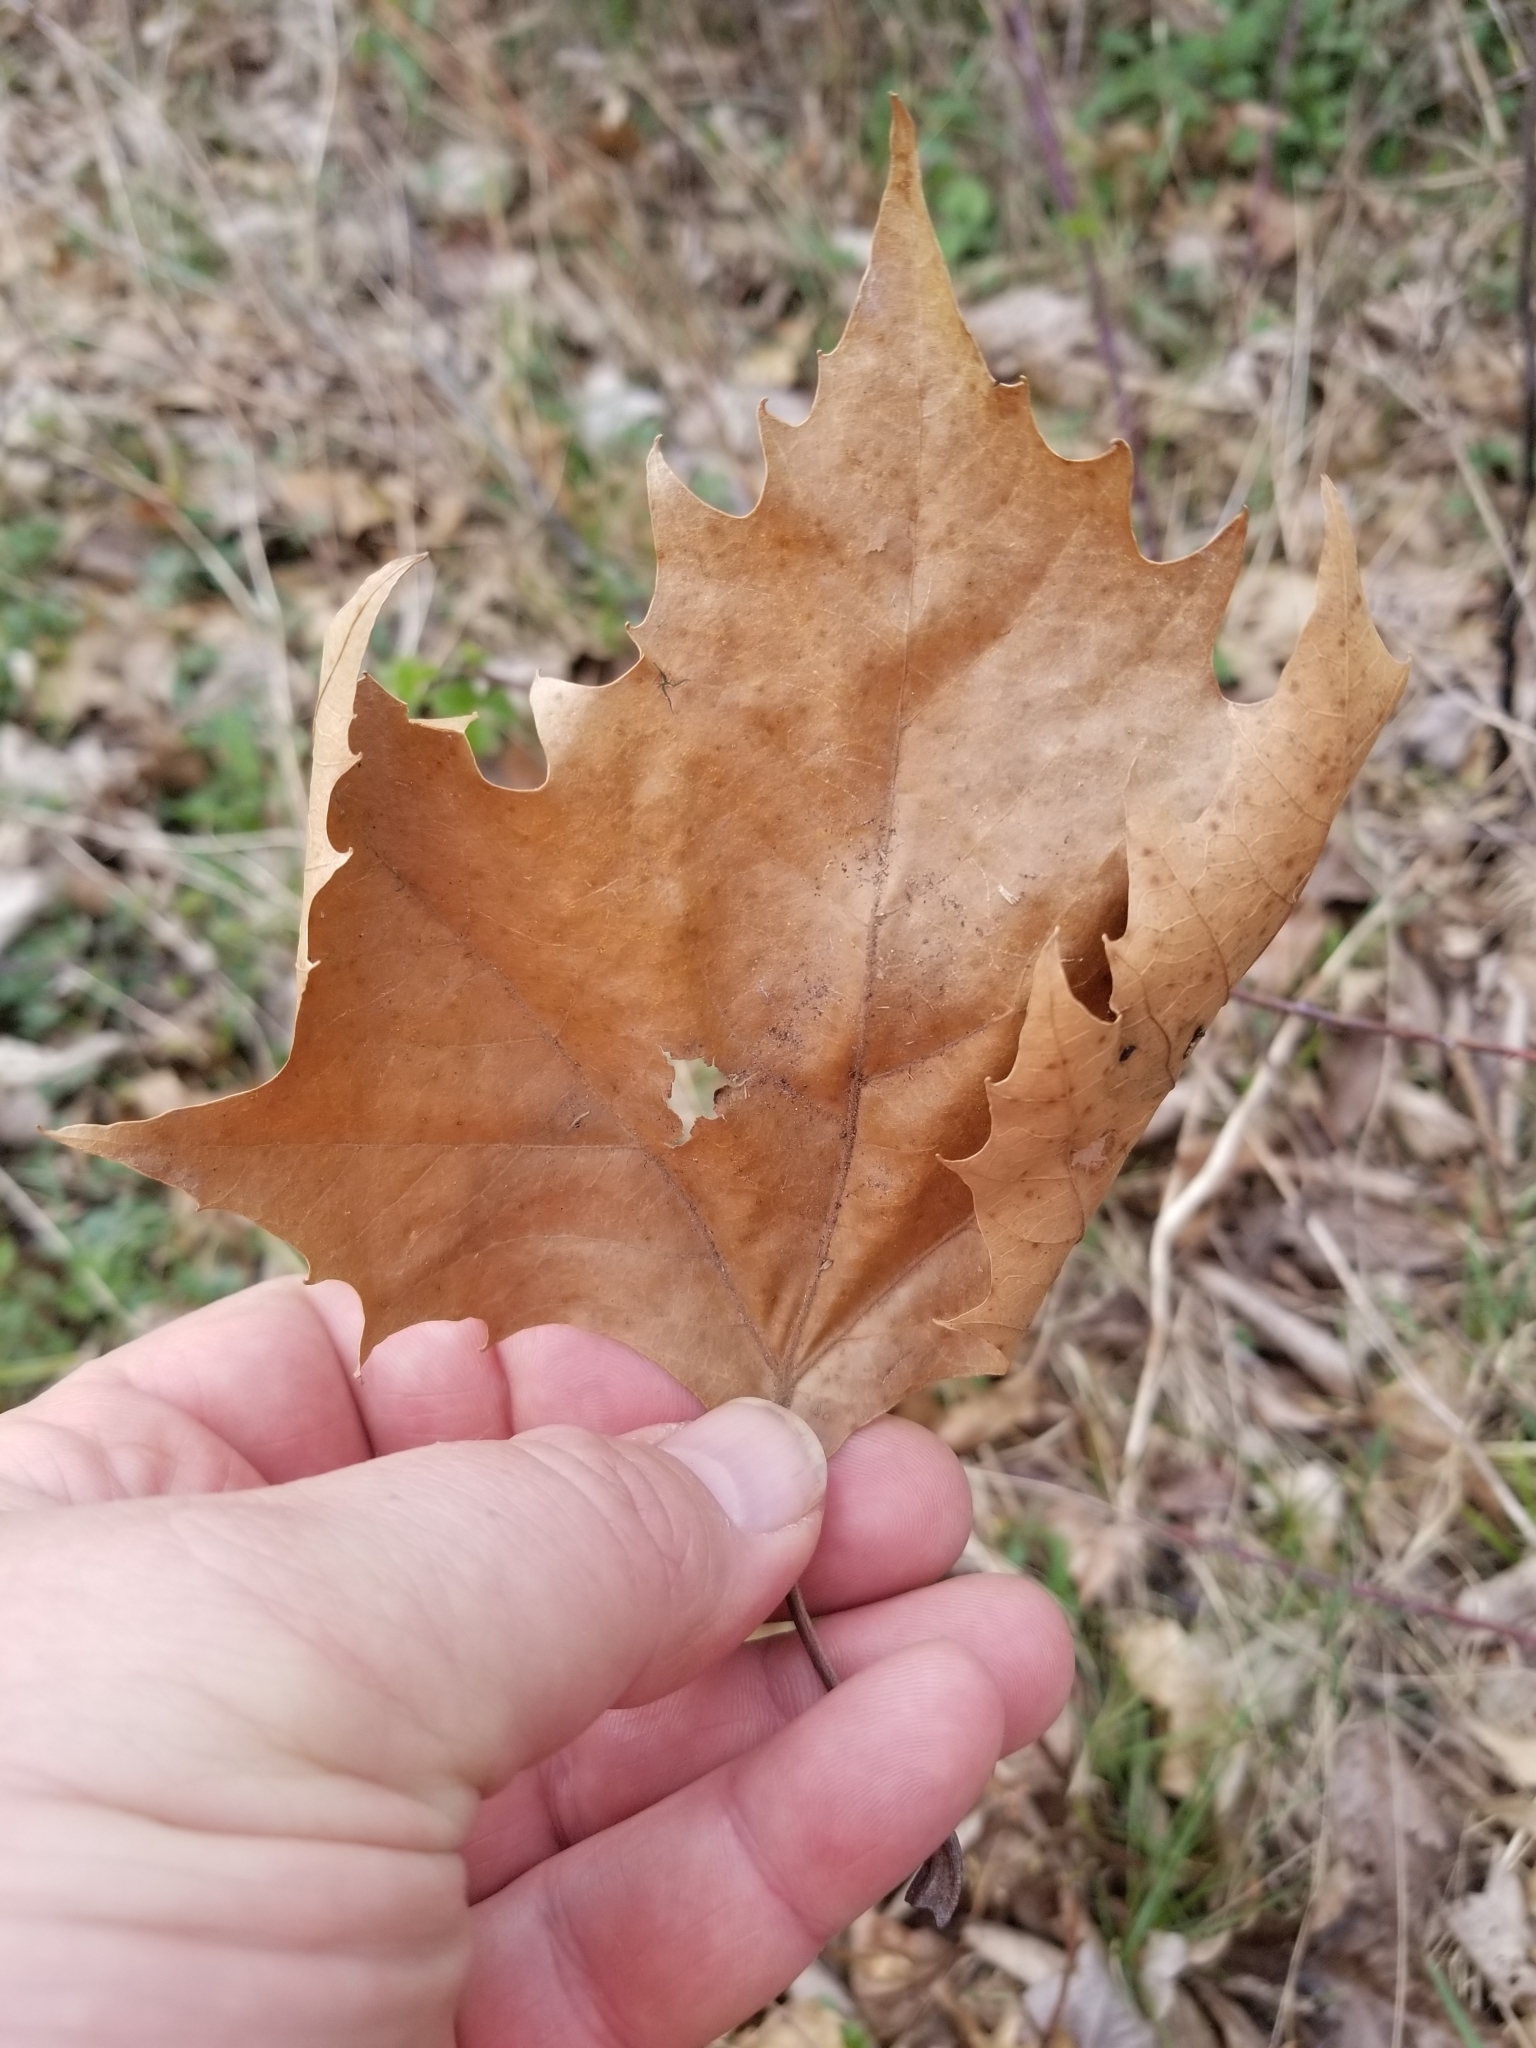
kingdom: Plantae
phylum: Tracheophyta
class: Magnoliopsida
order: Proteales
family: Platanaceae
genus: Platanus
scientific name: Platanus occidentalis
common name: American sycamore
